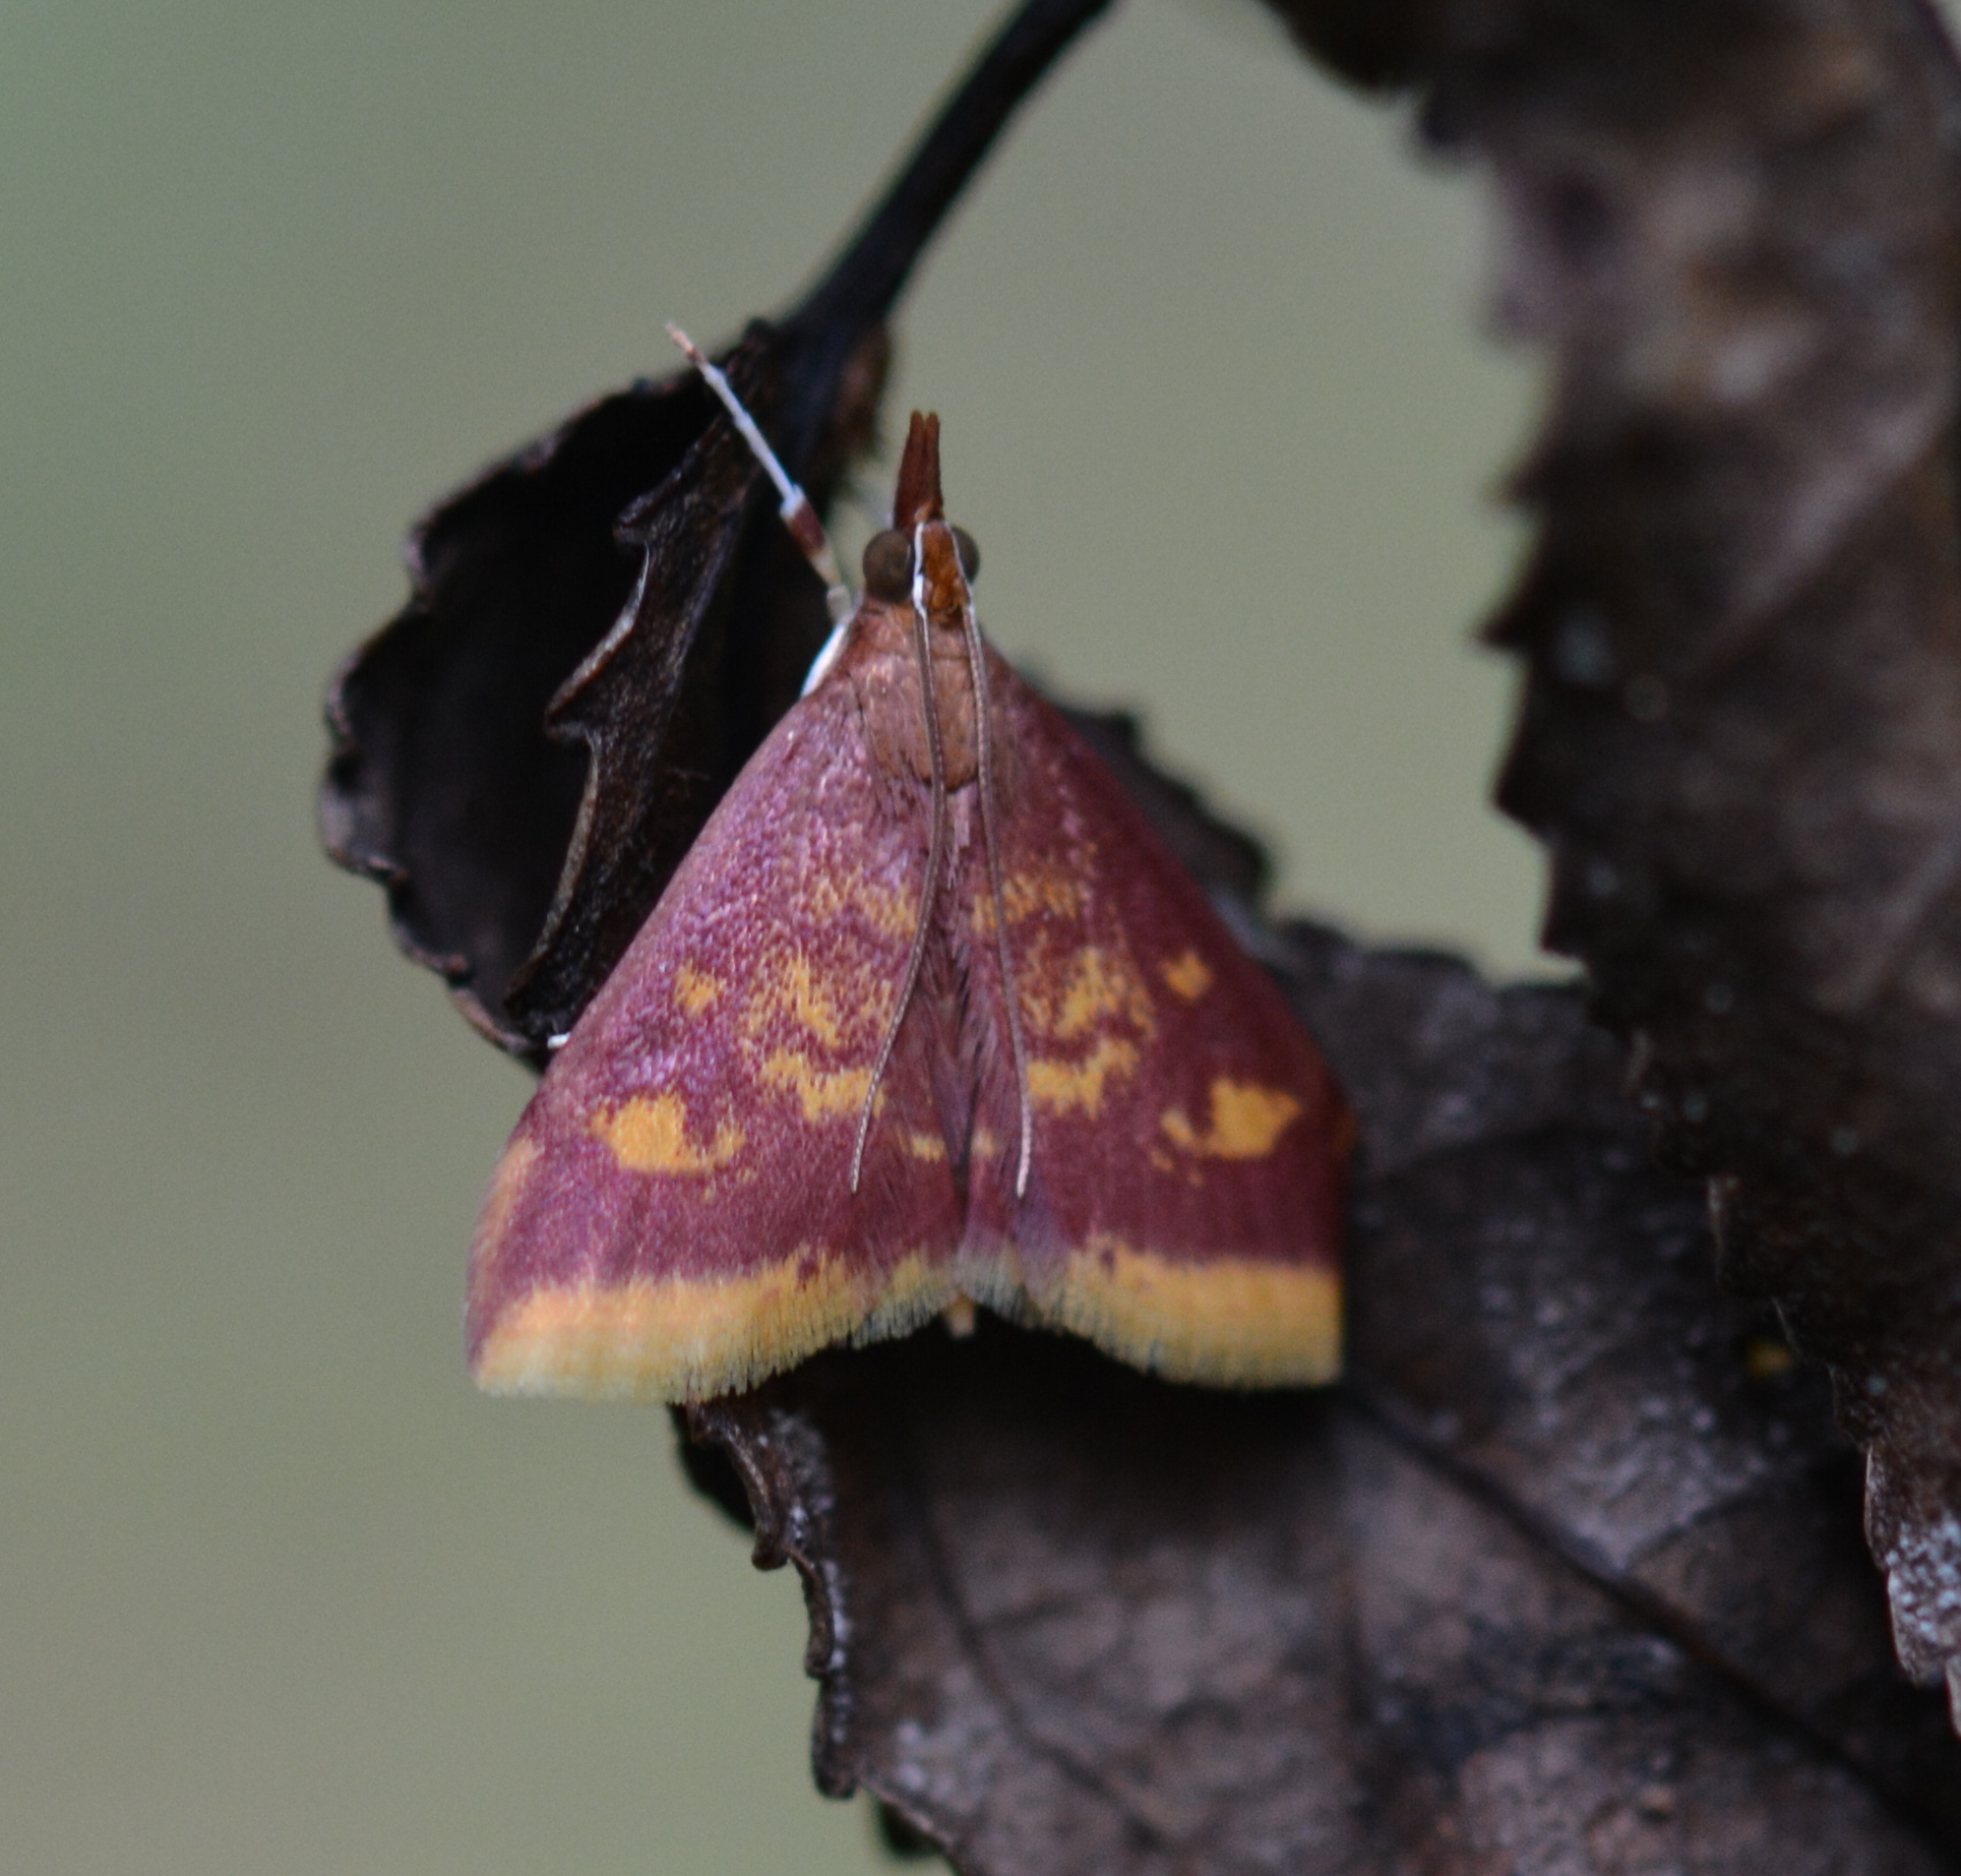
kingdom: Animalia
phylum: Arthropoda
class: Insecta
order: Lepidoptera
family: Crambidae
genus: Pyrausta
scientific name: Pyrausta acrionalis
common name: Mint-loving pyrausta moth
